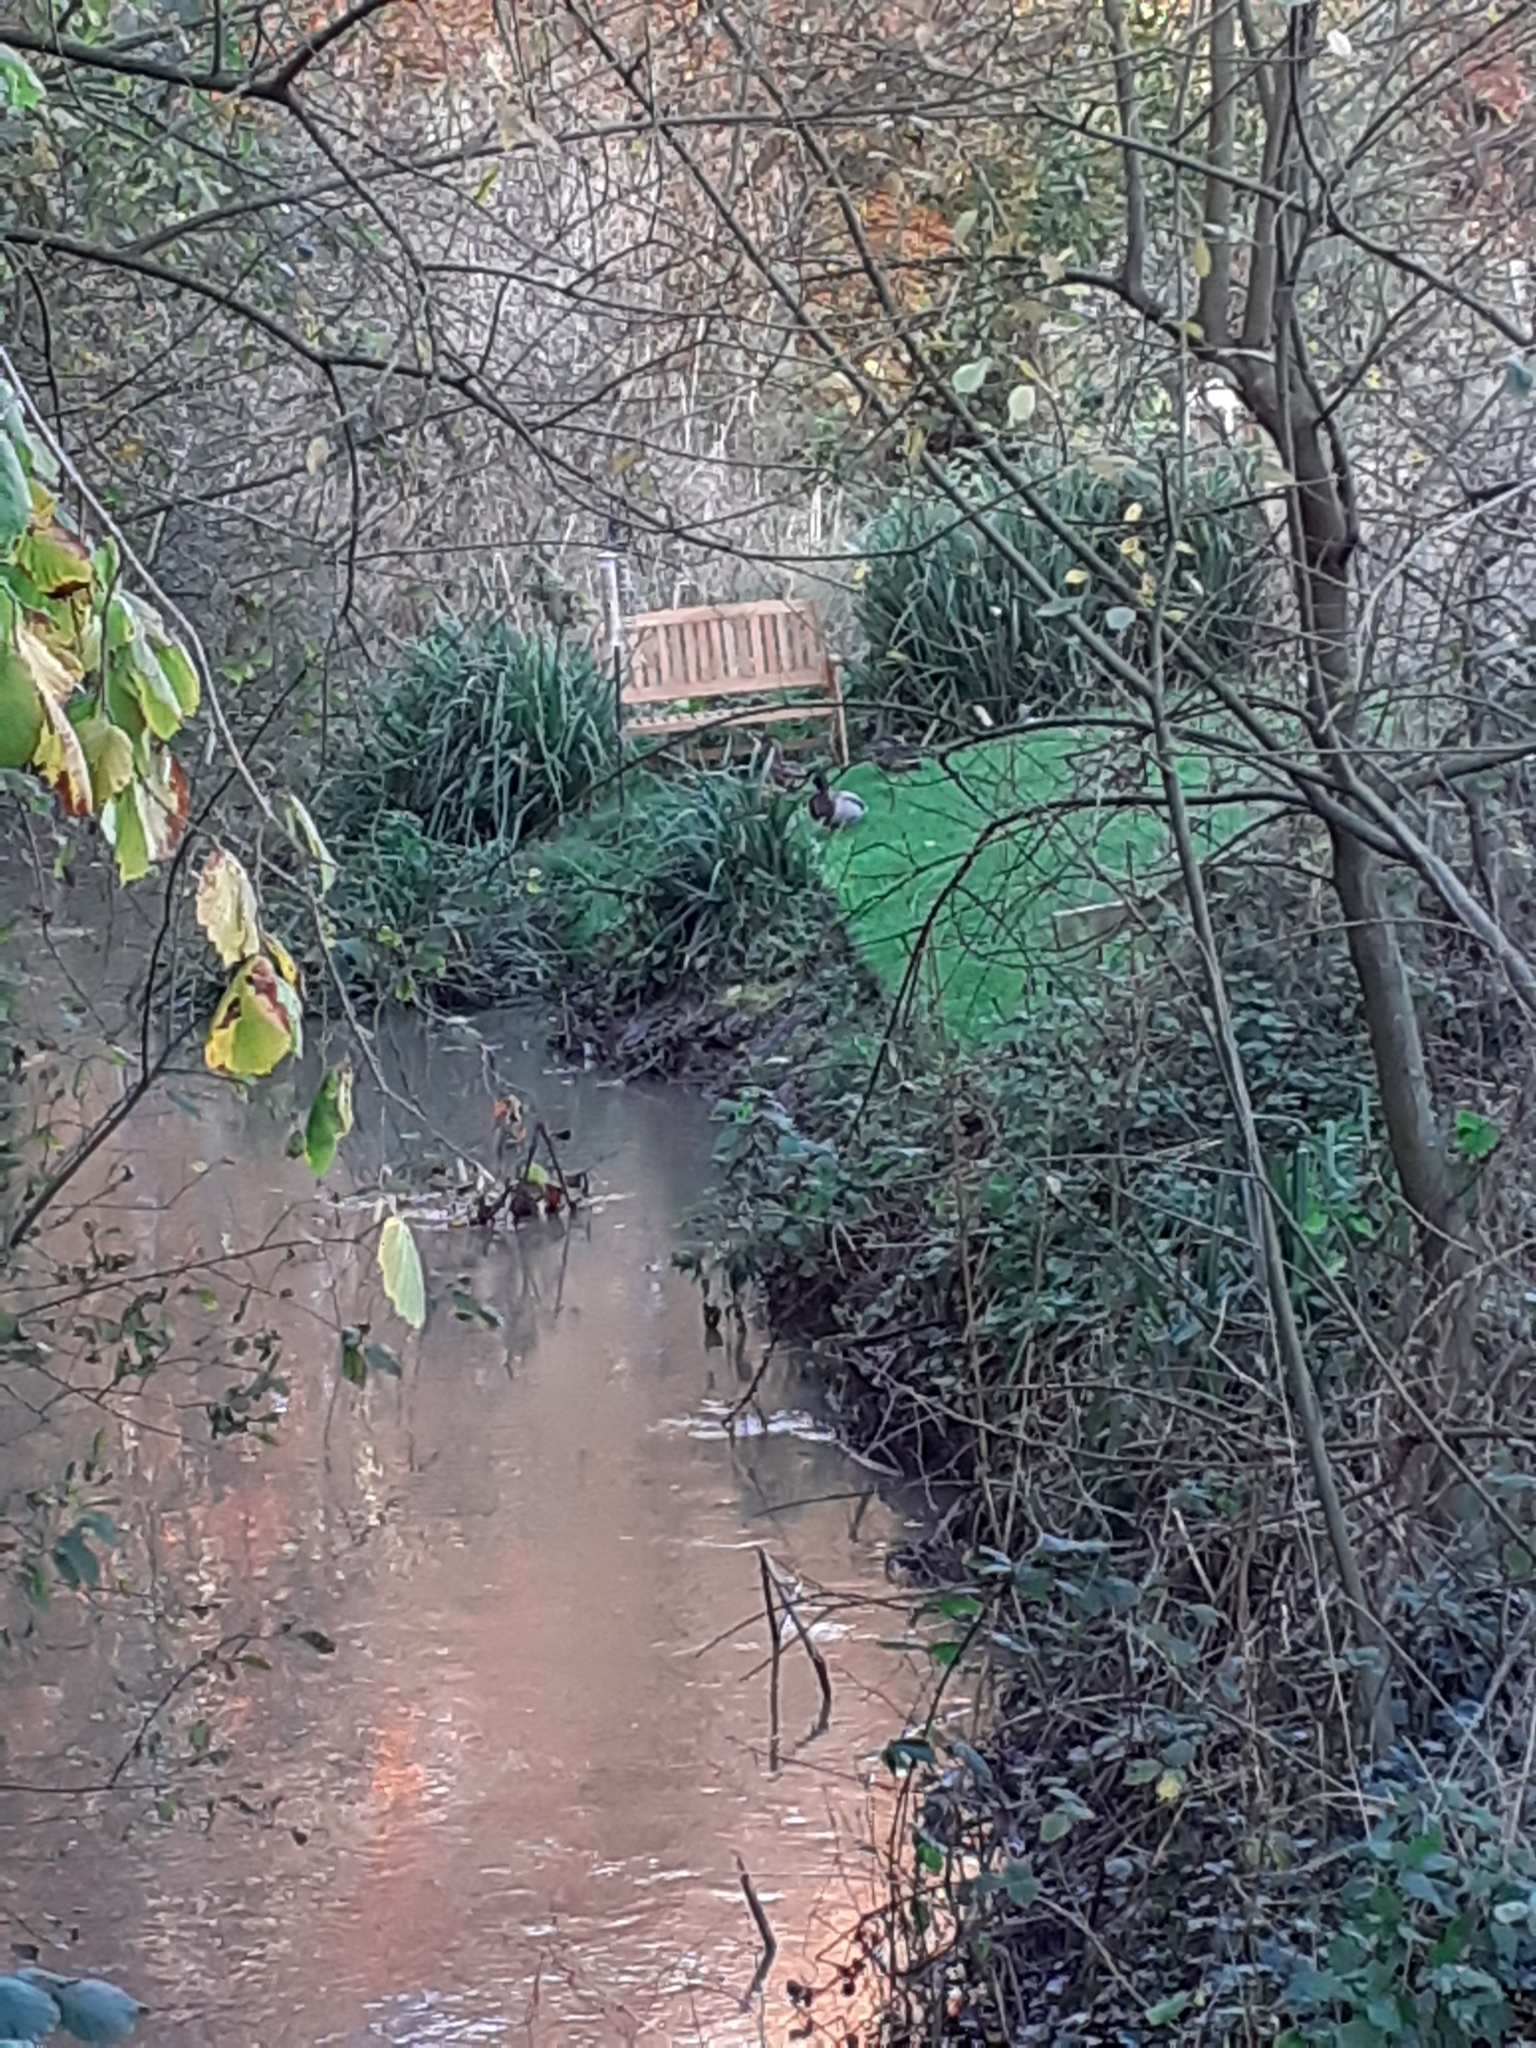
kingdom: Animalia
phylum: Chordata
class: Aves
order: Anseriformes
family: Anatidae
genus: Anas
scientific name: Anas platyrhynchos
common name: Mallard
